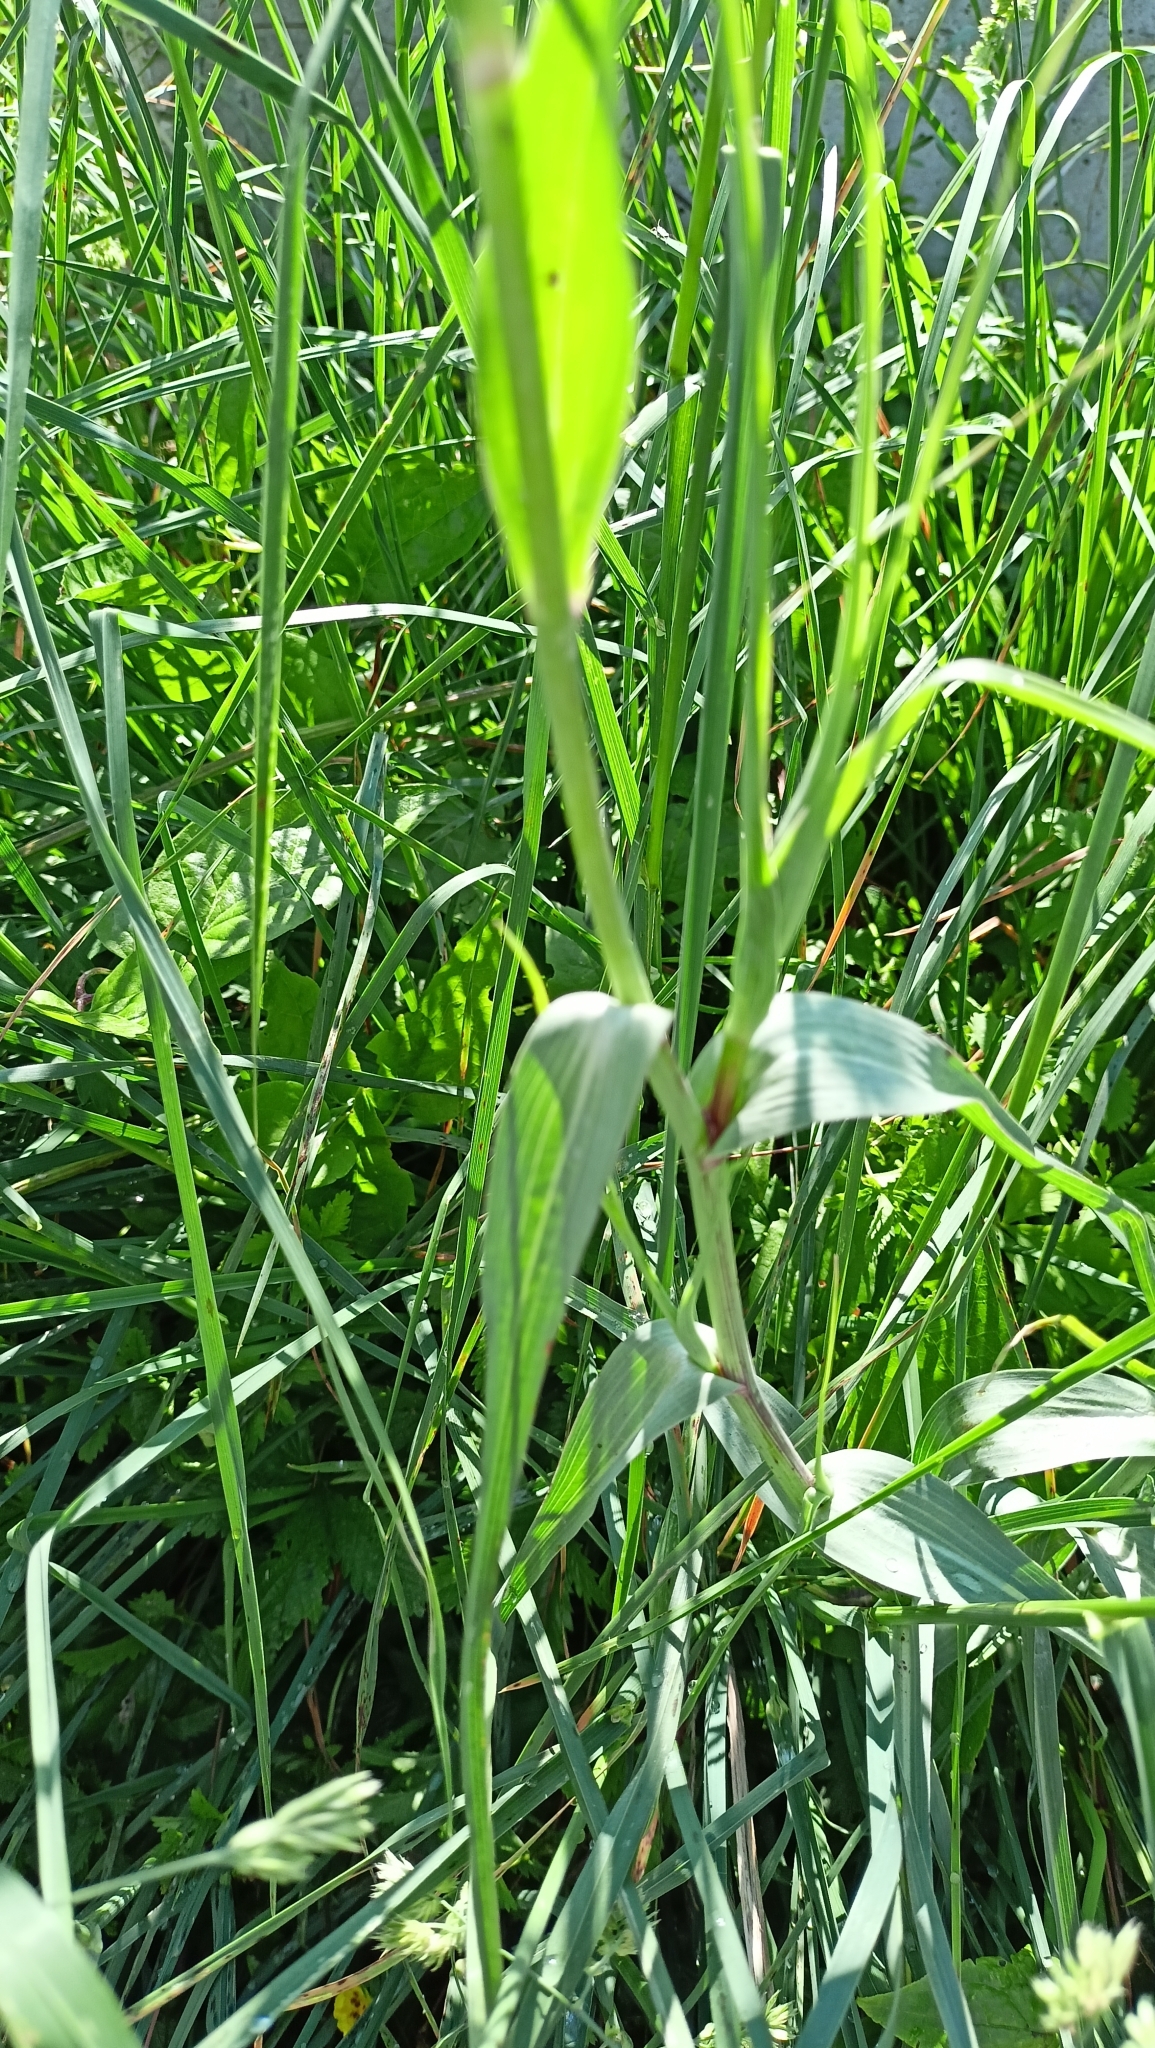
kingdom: Plantae
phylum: Tracheophyta
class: Magnoliopsida
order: Asterales
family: Asteraceae
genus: Tragopogon
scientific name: Tragopogon dubius
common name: Yellow salsify
